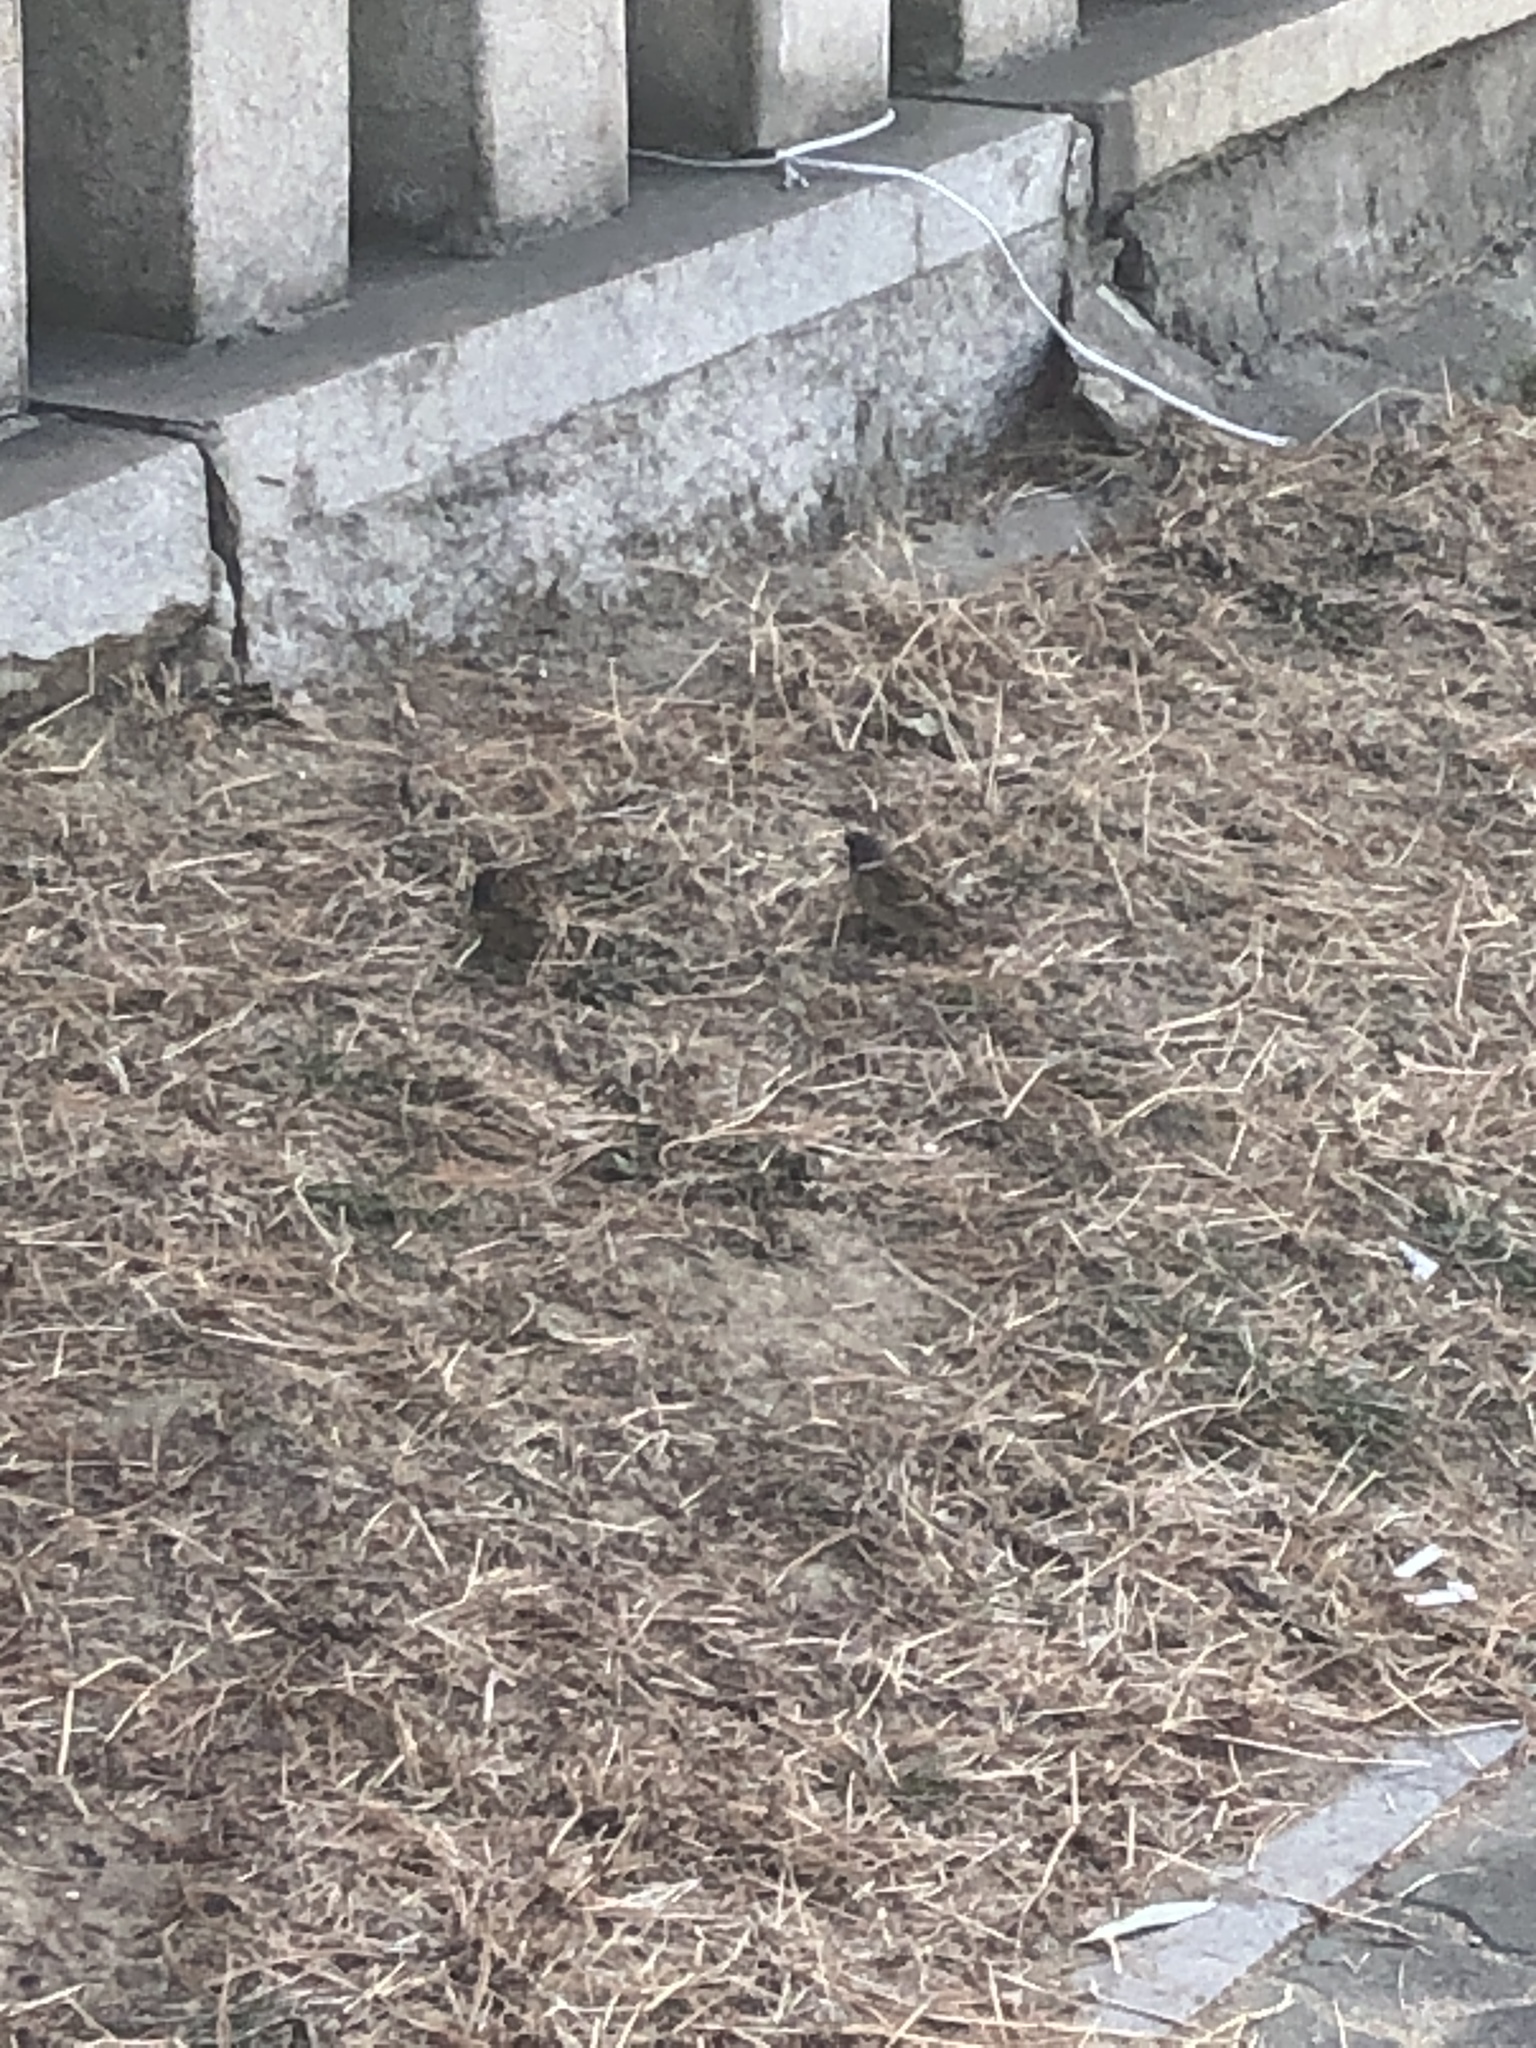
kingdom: Animalia
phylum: Chordata
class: Aves
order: Passeriformes
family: Passeridae
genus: Passer
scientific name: Passer montanus
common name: Eurasian tree sparrow
